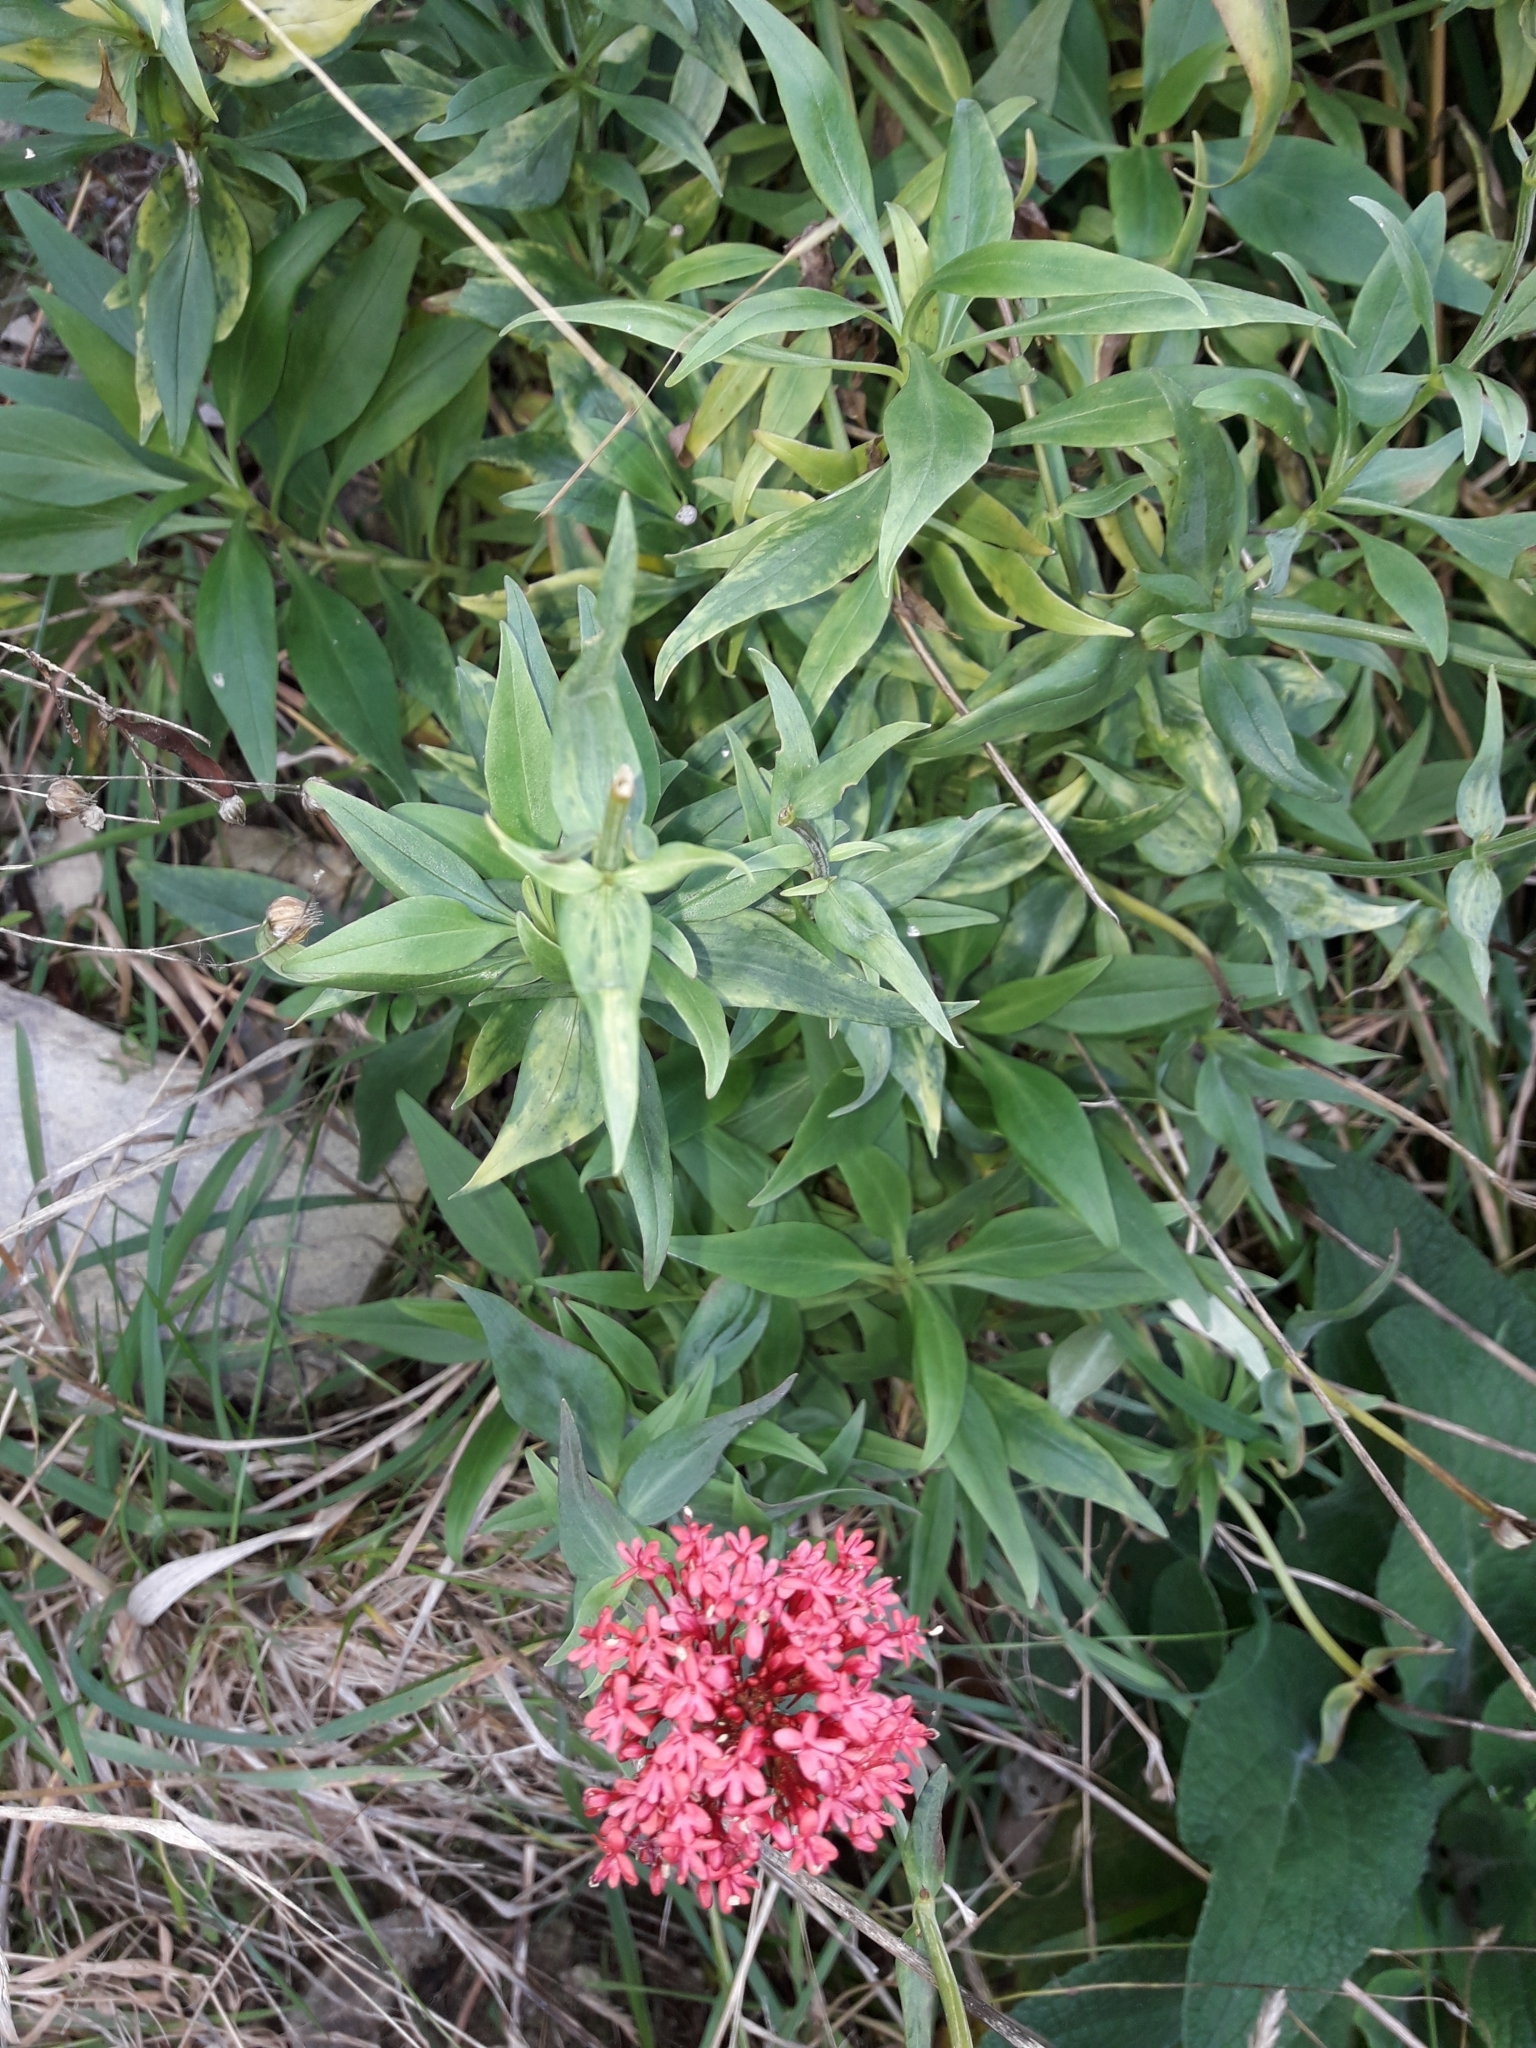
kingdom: Plantae
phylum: Tracheophyta
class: Magnoliopsida
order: Dipsacales
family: Caprifoliaceae
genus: Centranthus
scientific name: Centranthus ruber
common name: Red valerian
